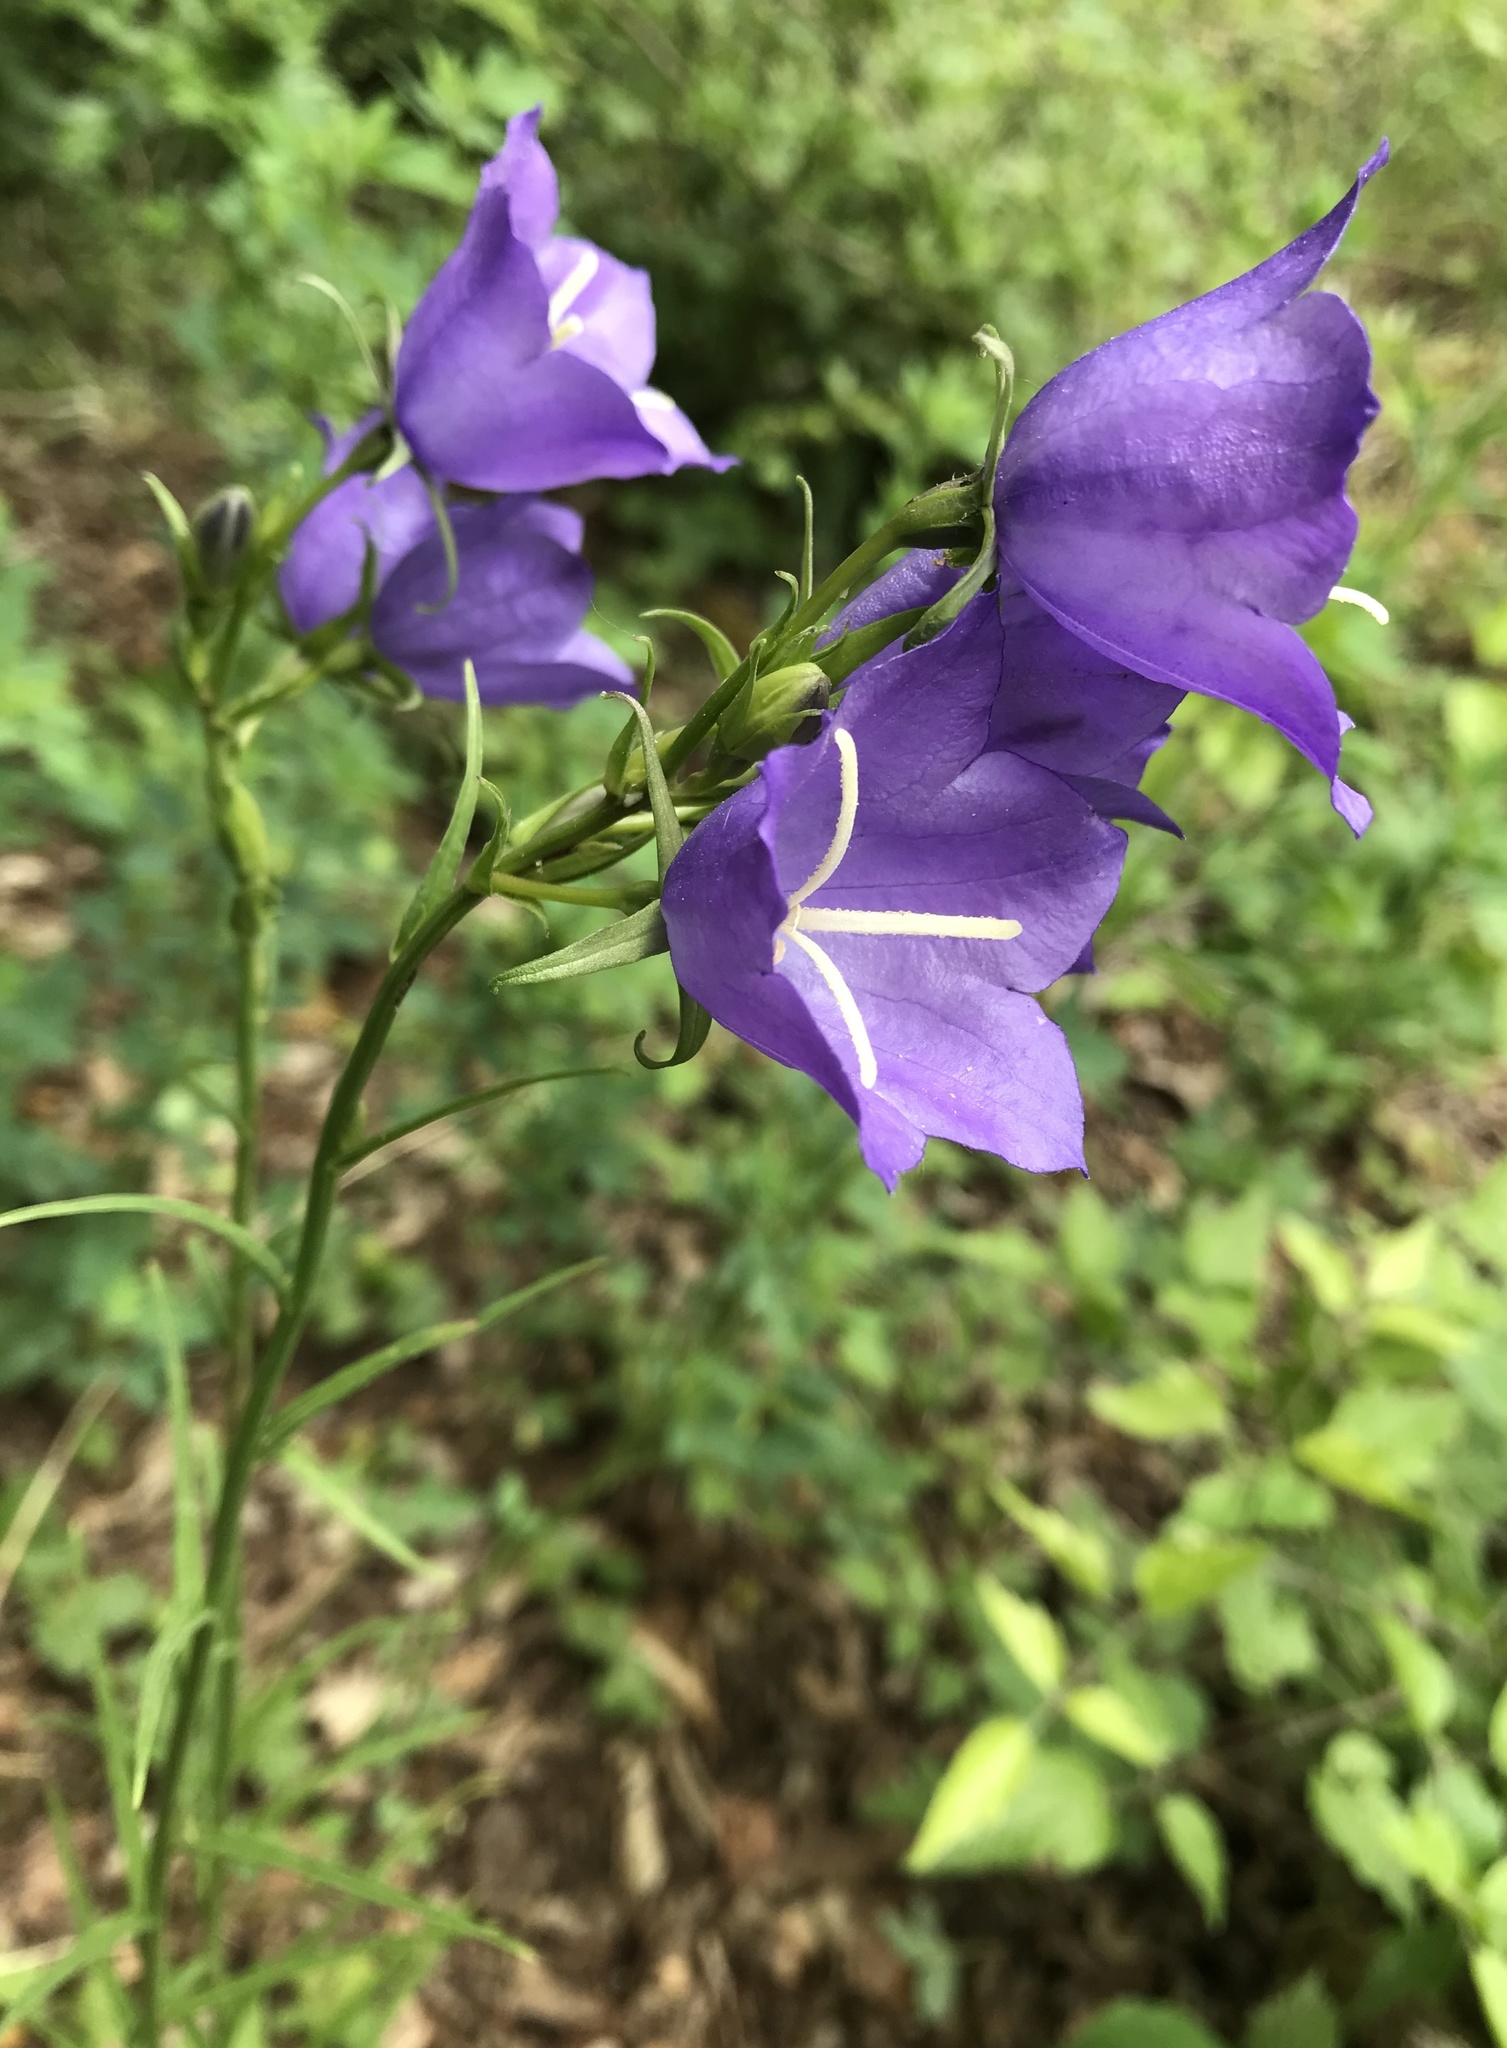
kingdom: Plantae
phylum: Tracheophyta
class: Magnoliopsida
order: Asterales
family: Campanulaceae
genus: Campanula
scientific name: Campanula persicifolia
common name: Peach-leaved bellflower
